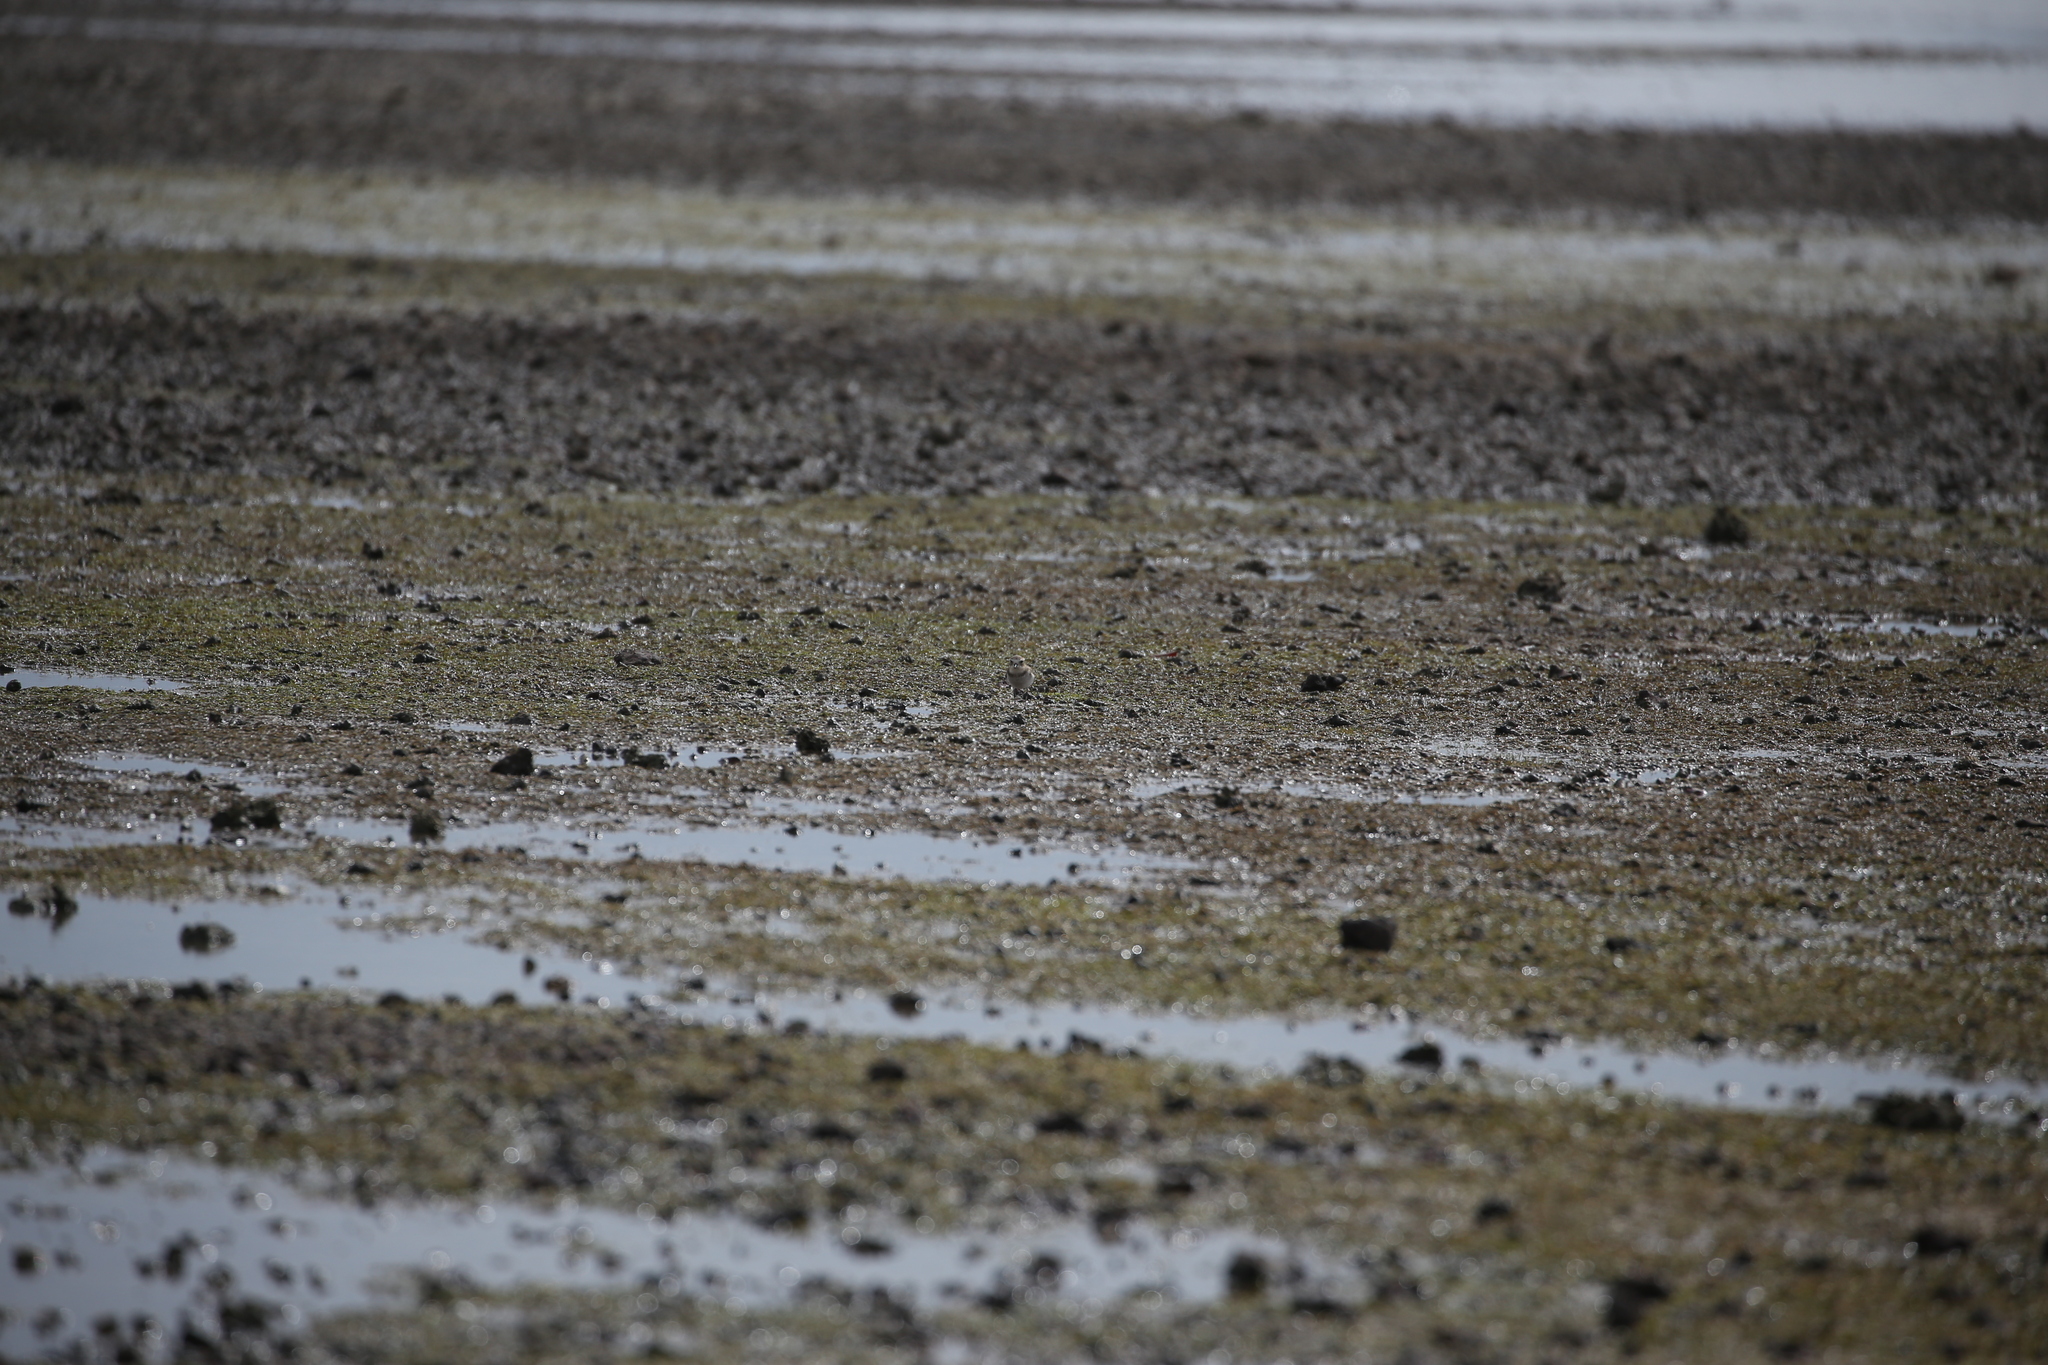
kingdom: Animalia
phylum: Chordata
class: Aves
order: Charadriiformes
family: Charadriidae
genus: Anarhynchus
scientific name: Anarhynchus
